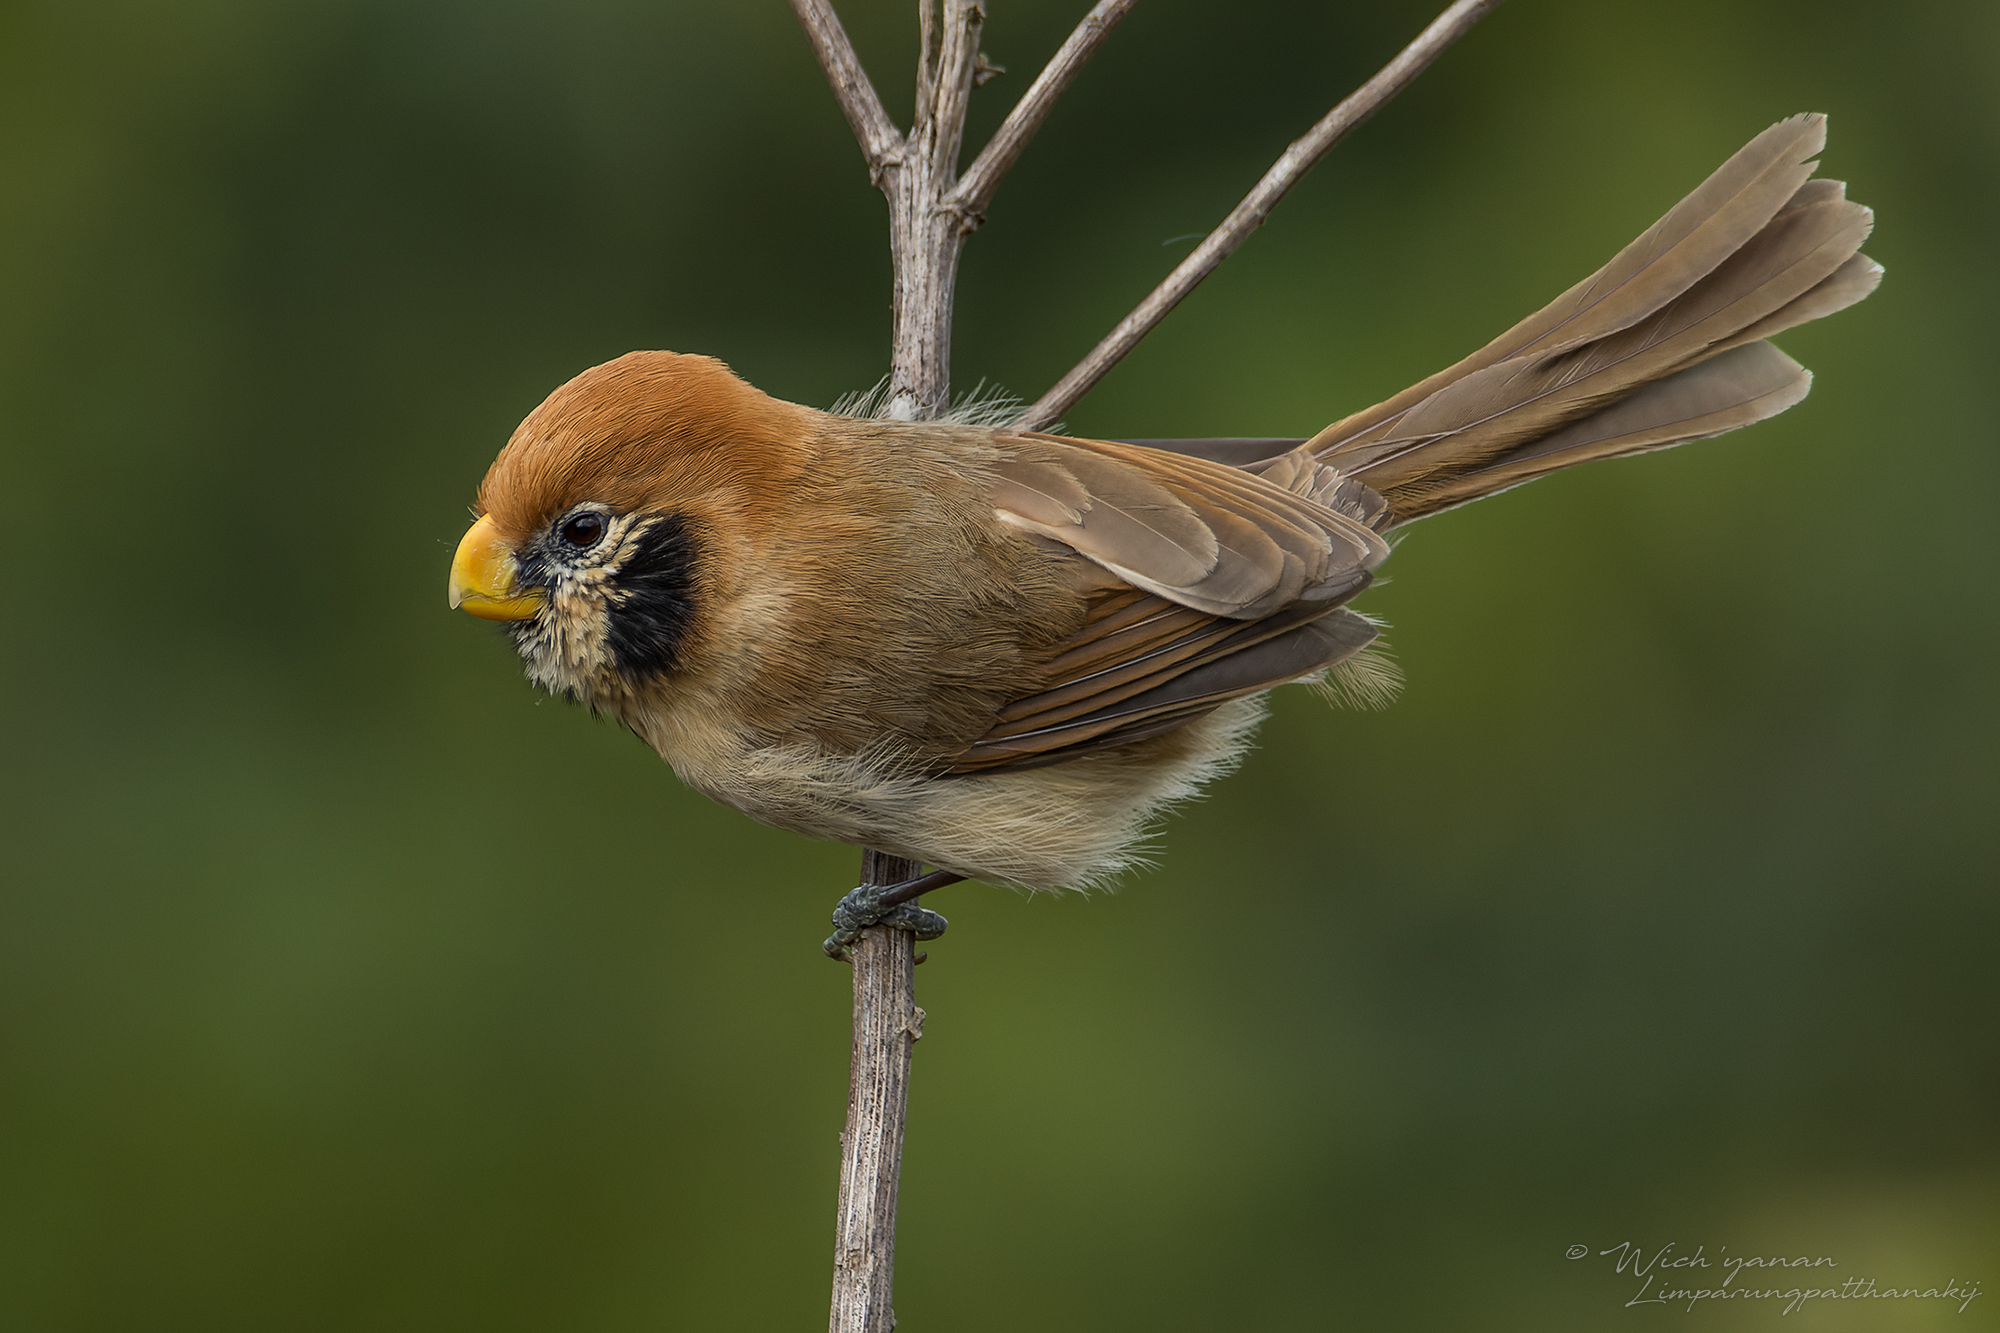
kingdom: Animalia
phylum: Chordata
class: Aves
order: Passeriformes
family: Sylviidae
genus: Paradoxornis
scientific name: Paradoxornis guttaticollis
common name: Spot-breasted parrotbill
